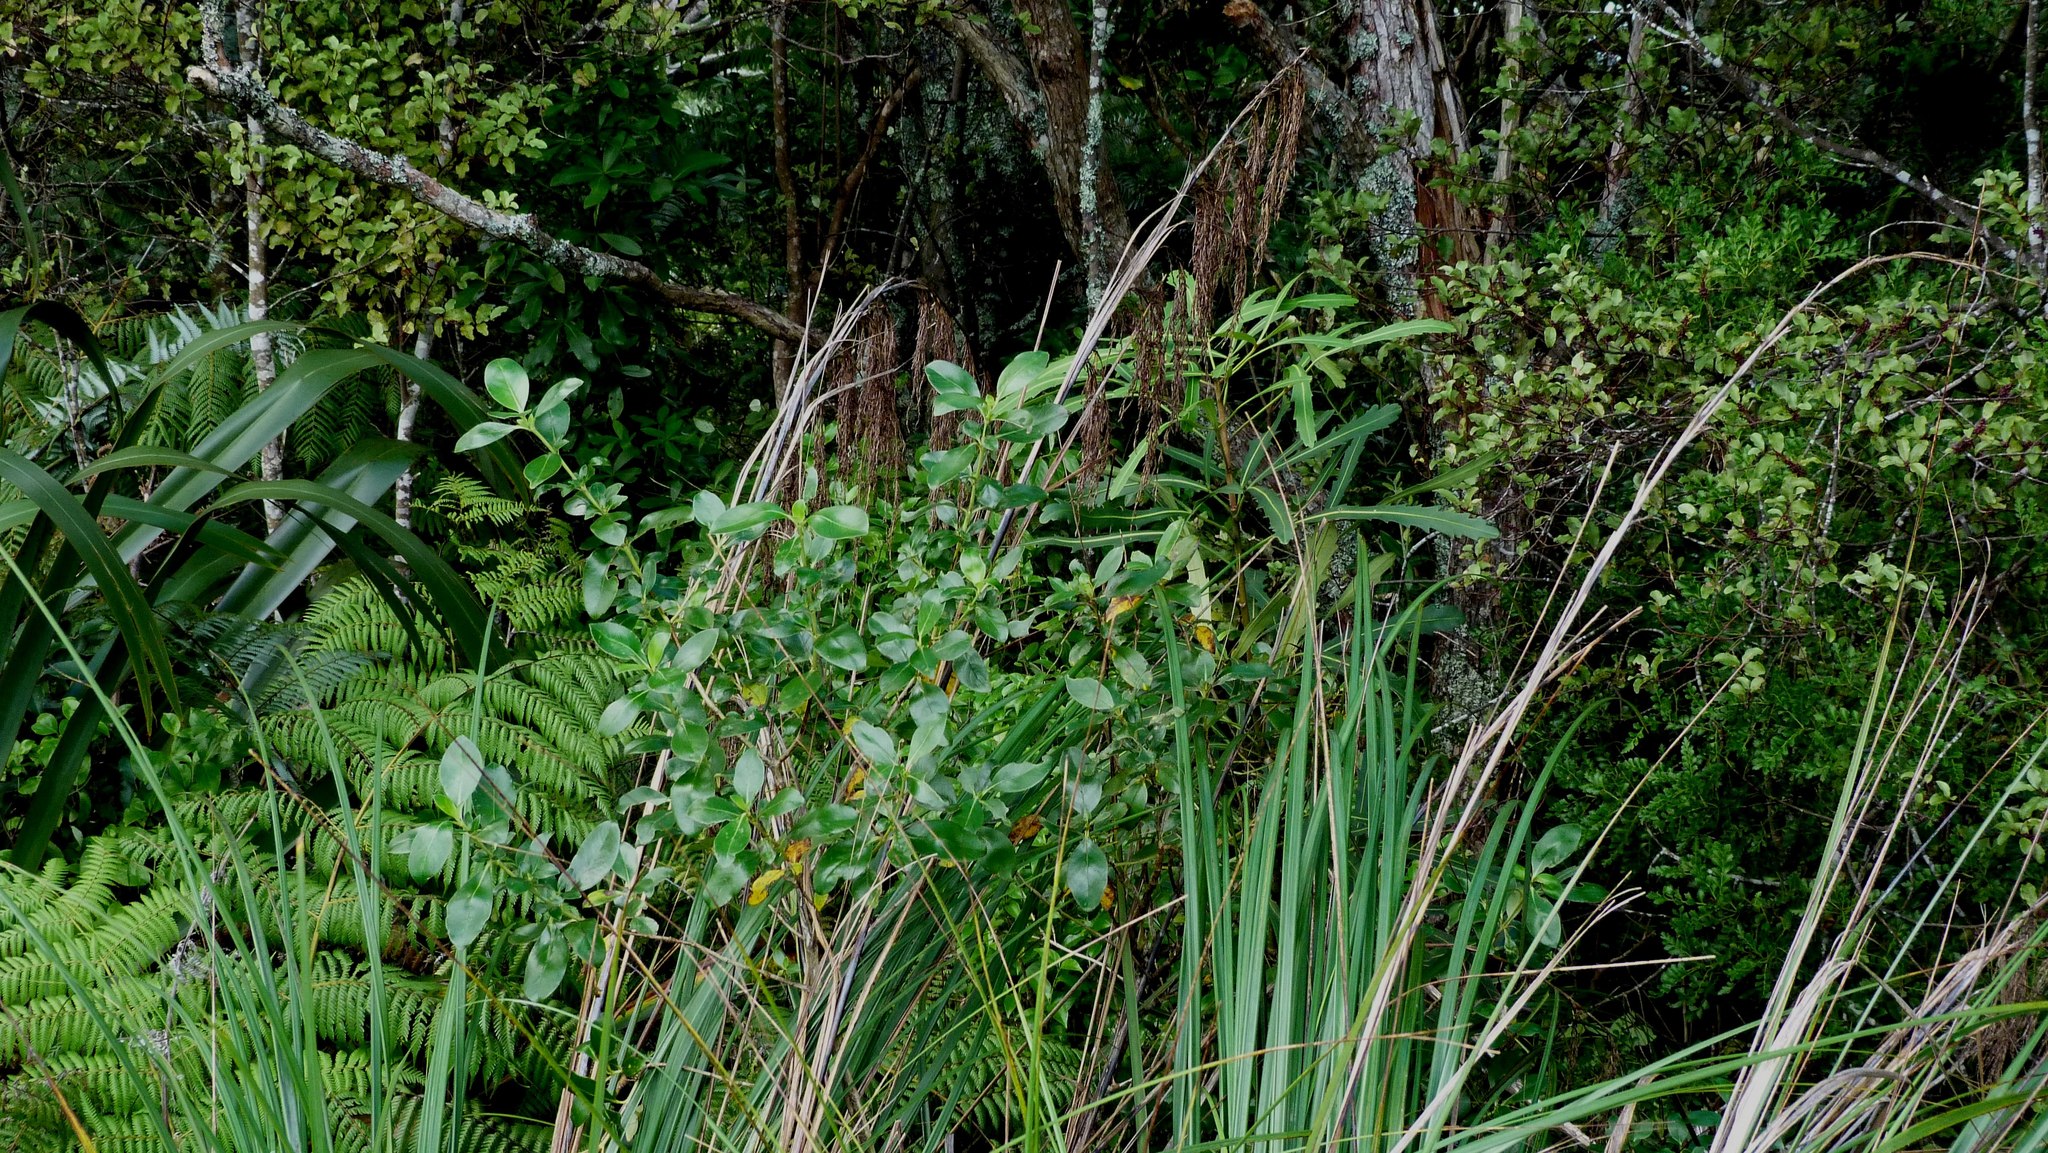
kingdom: Plantae
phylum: Tracheophyta
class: Liliopsida
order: Poales
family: Cyperaceae
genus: Gahnia
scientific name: Gahnia setifolia
